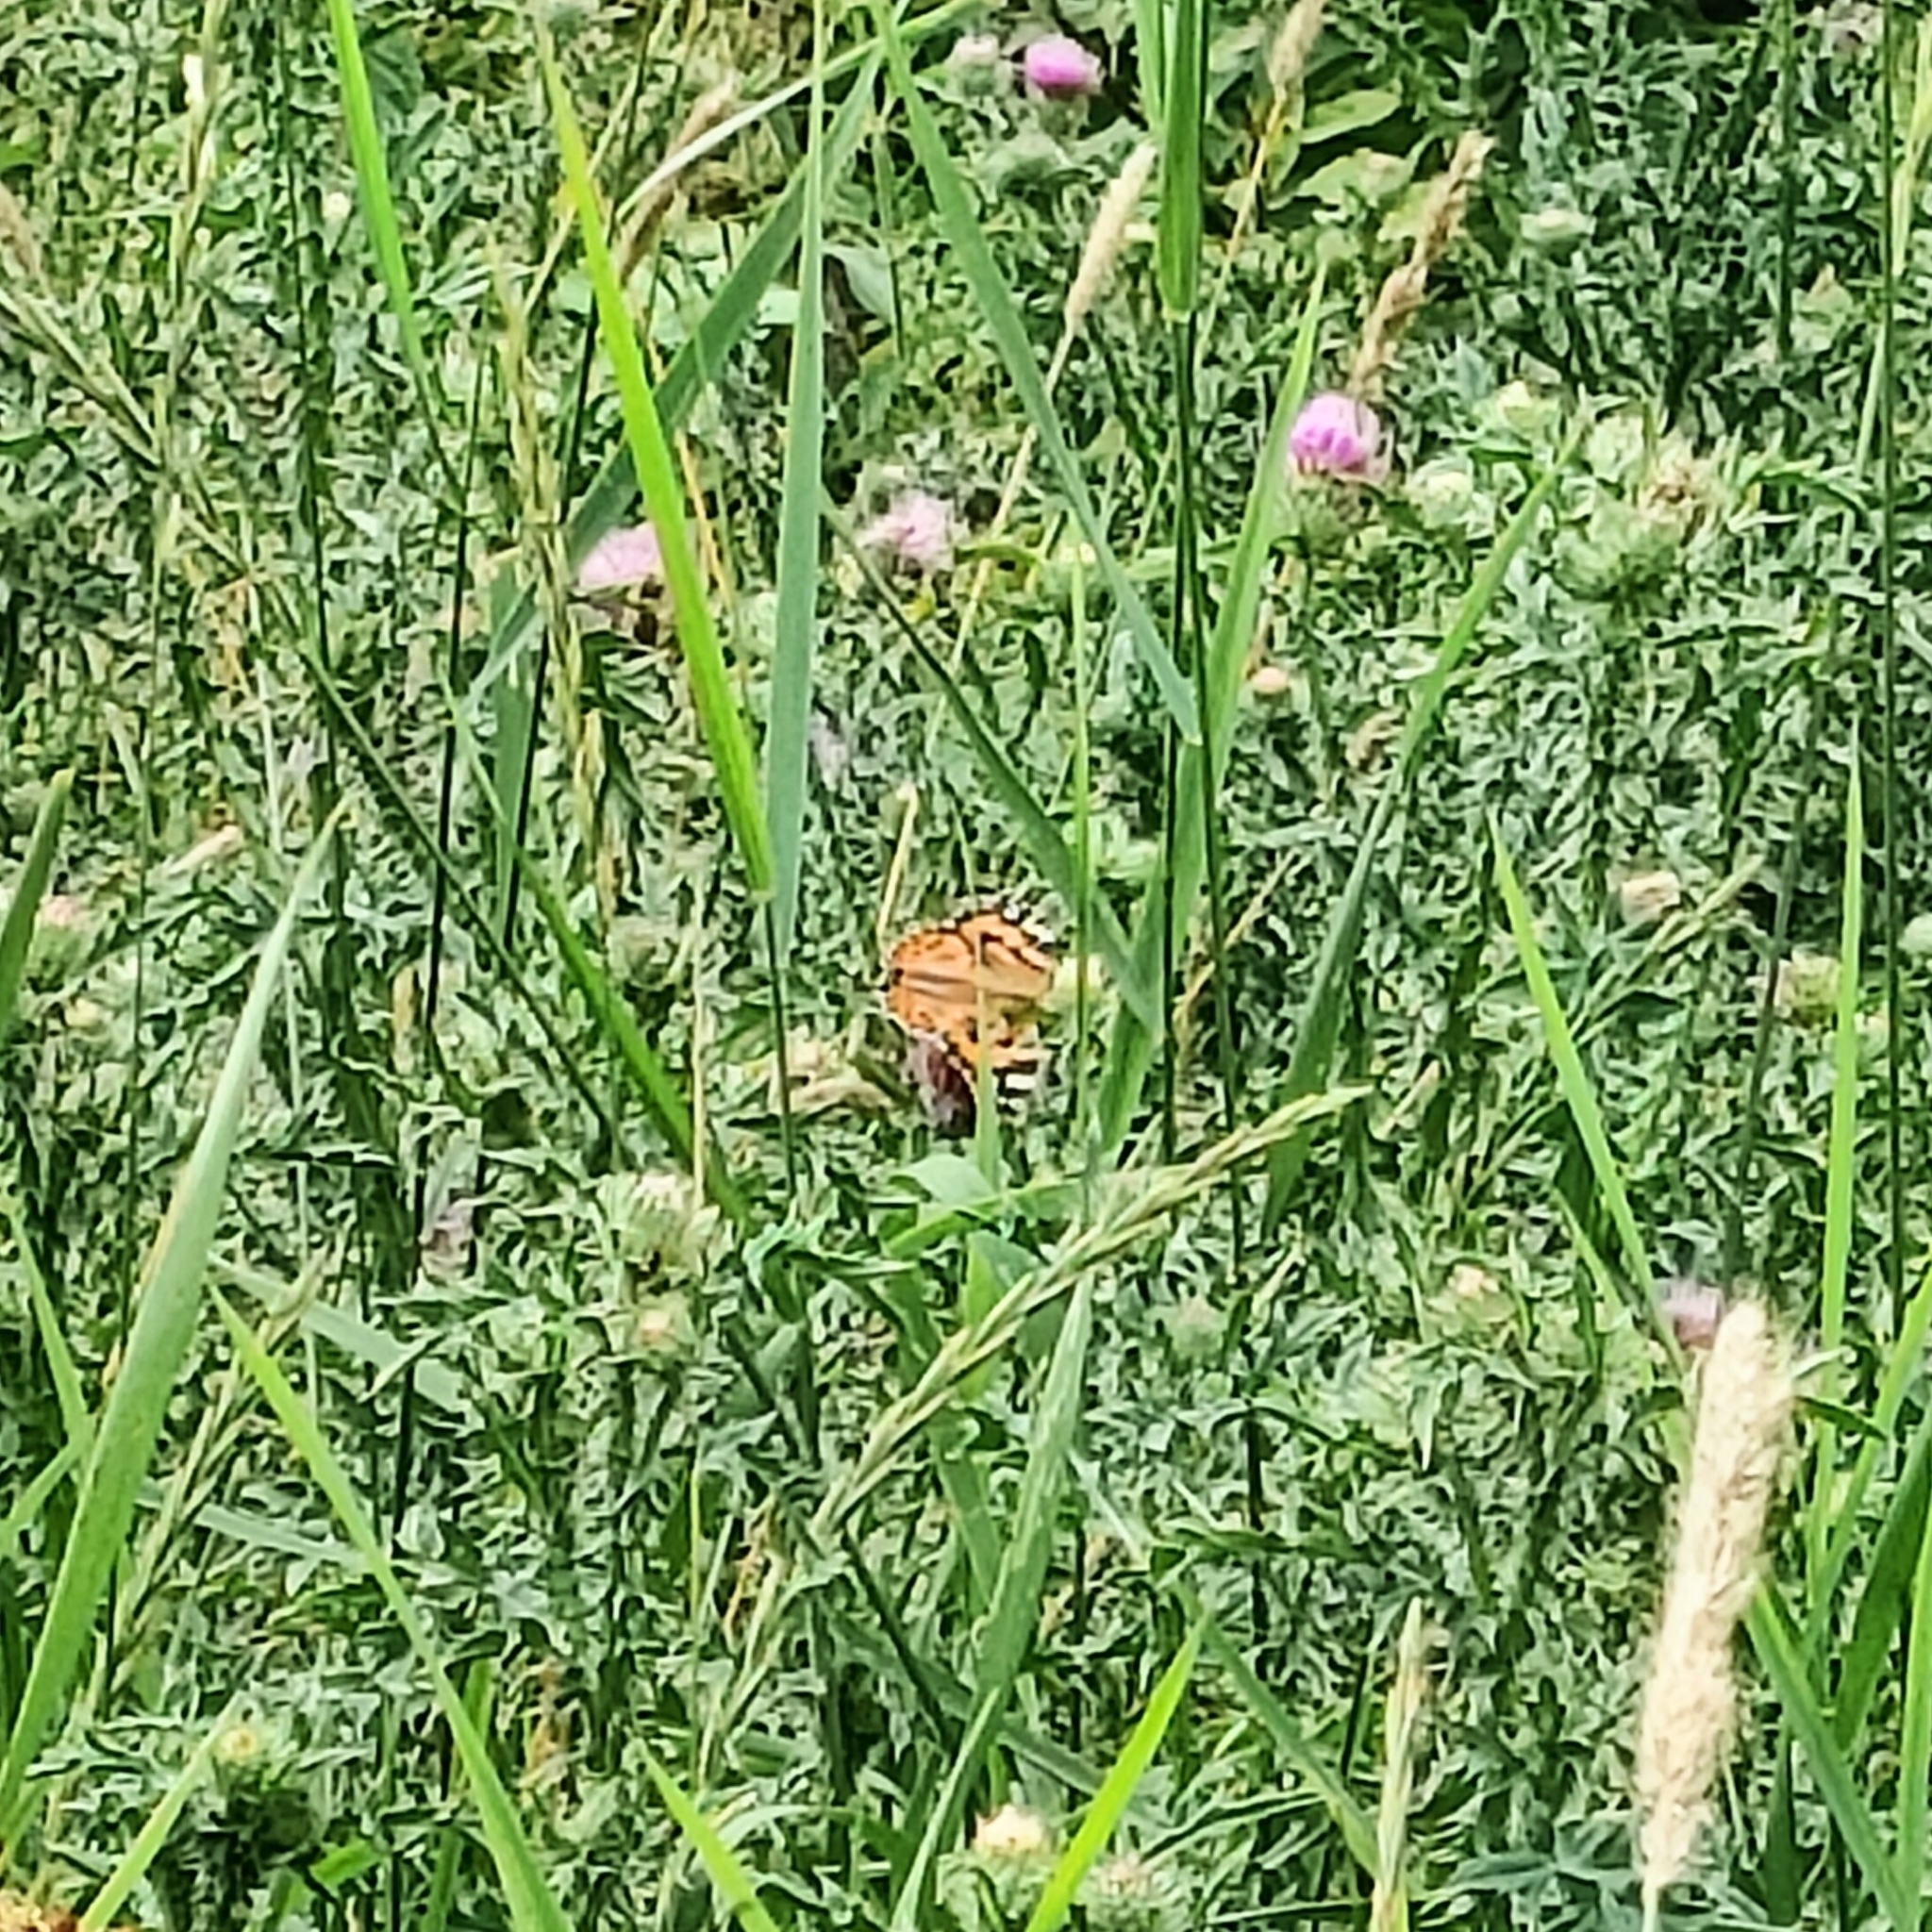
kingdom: Animalia
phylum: Arthropoda
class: Insecta
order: Lepidoptera
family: Nymphalidae
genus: Vanessa
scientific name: Vanessa cardui
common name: Painted lady
